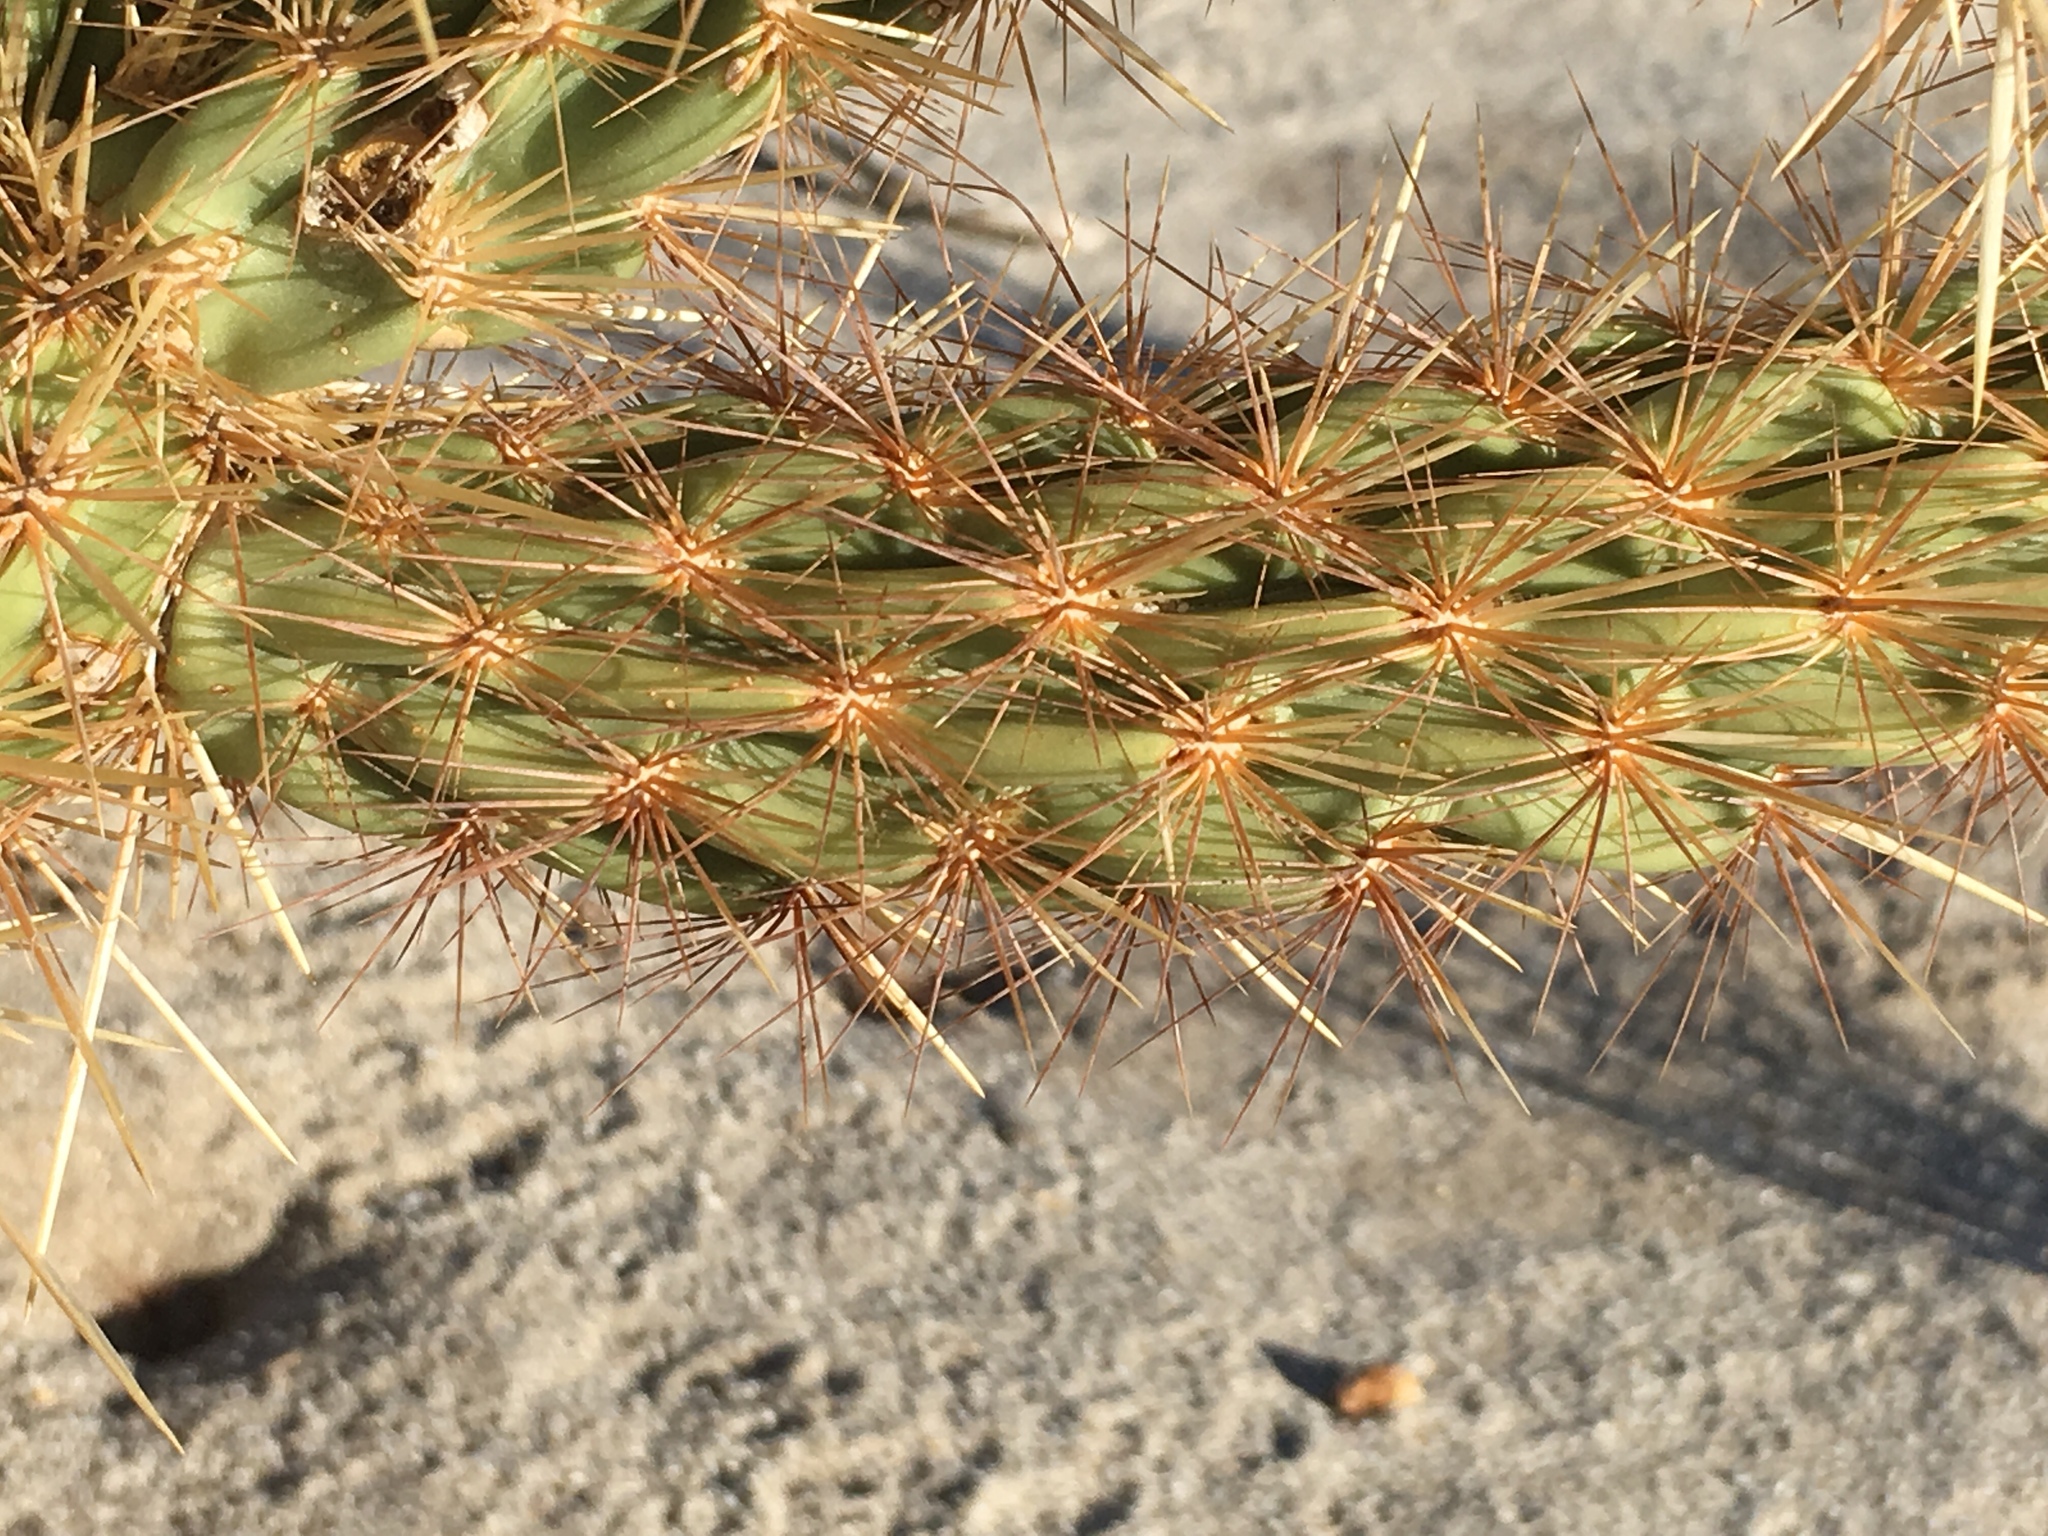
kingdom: Plantae
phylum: Tracheophyta
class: Magnoliopsida
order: Caryophyllales
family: Cactaceae
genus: Cylindropuntia
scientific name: Cylindropuntia ganderi
